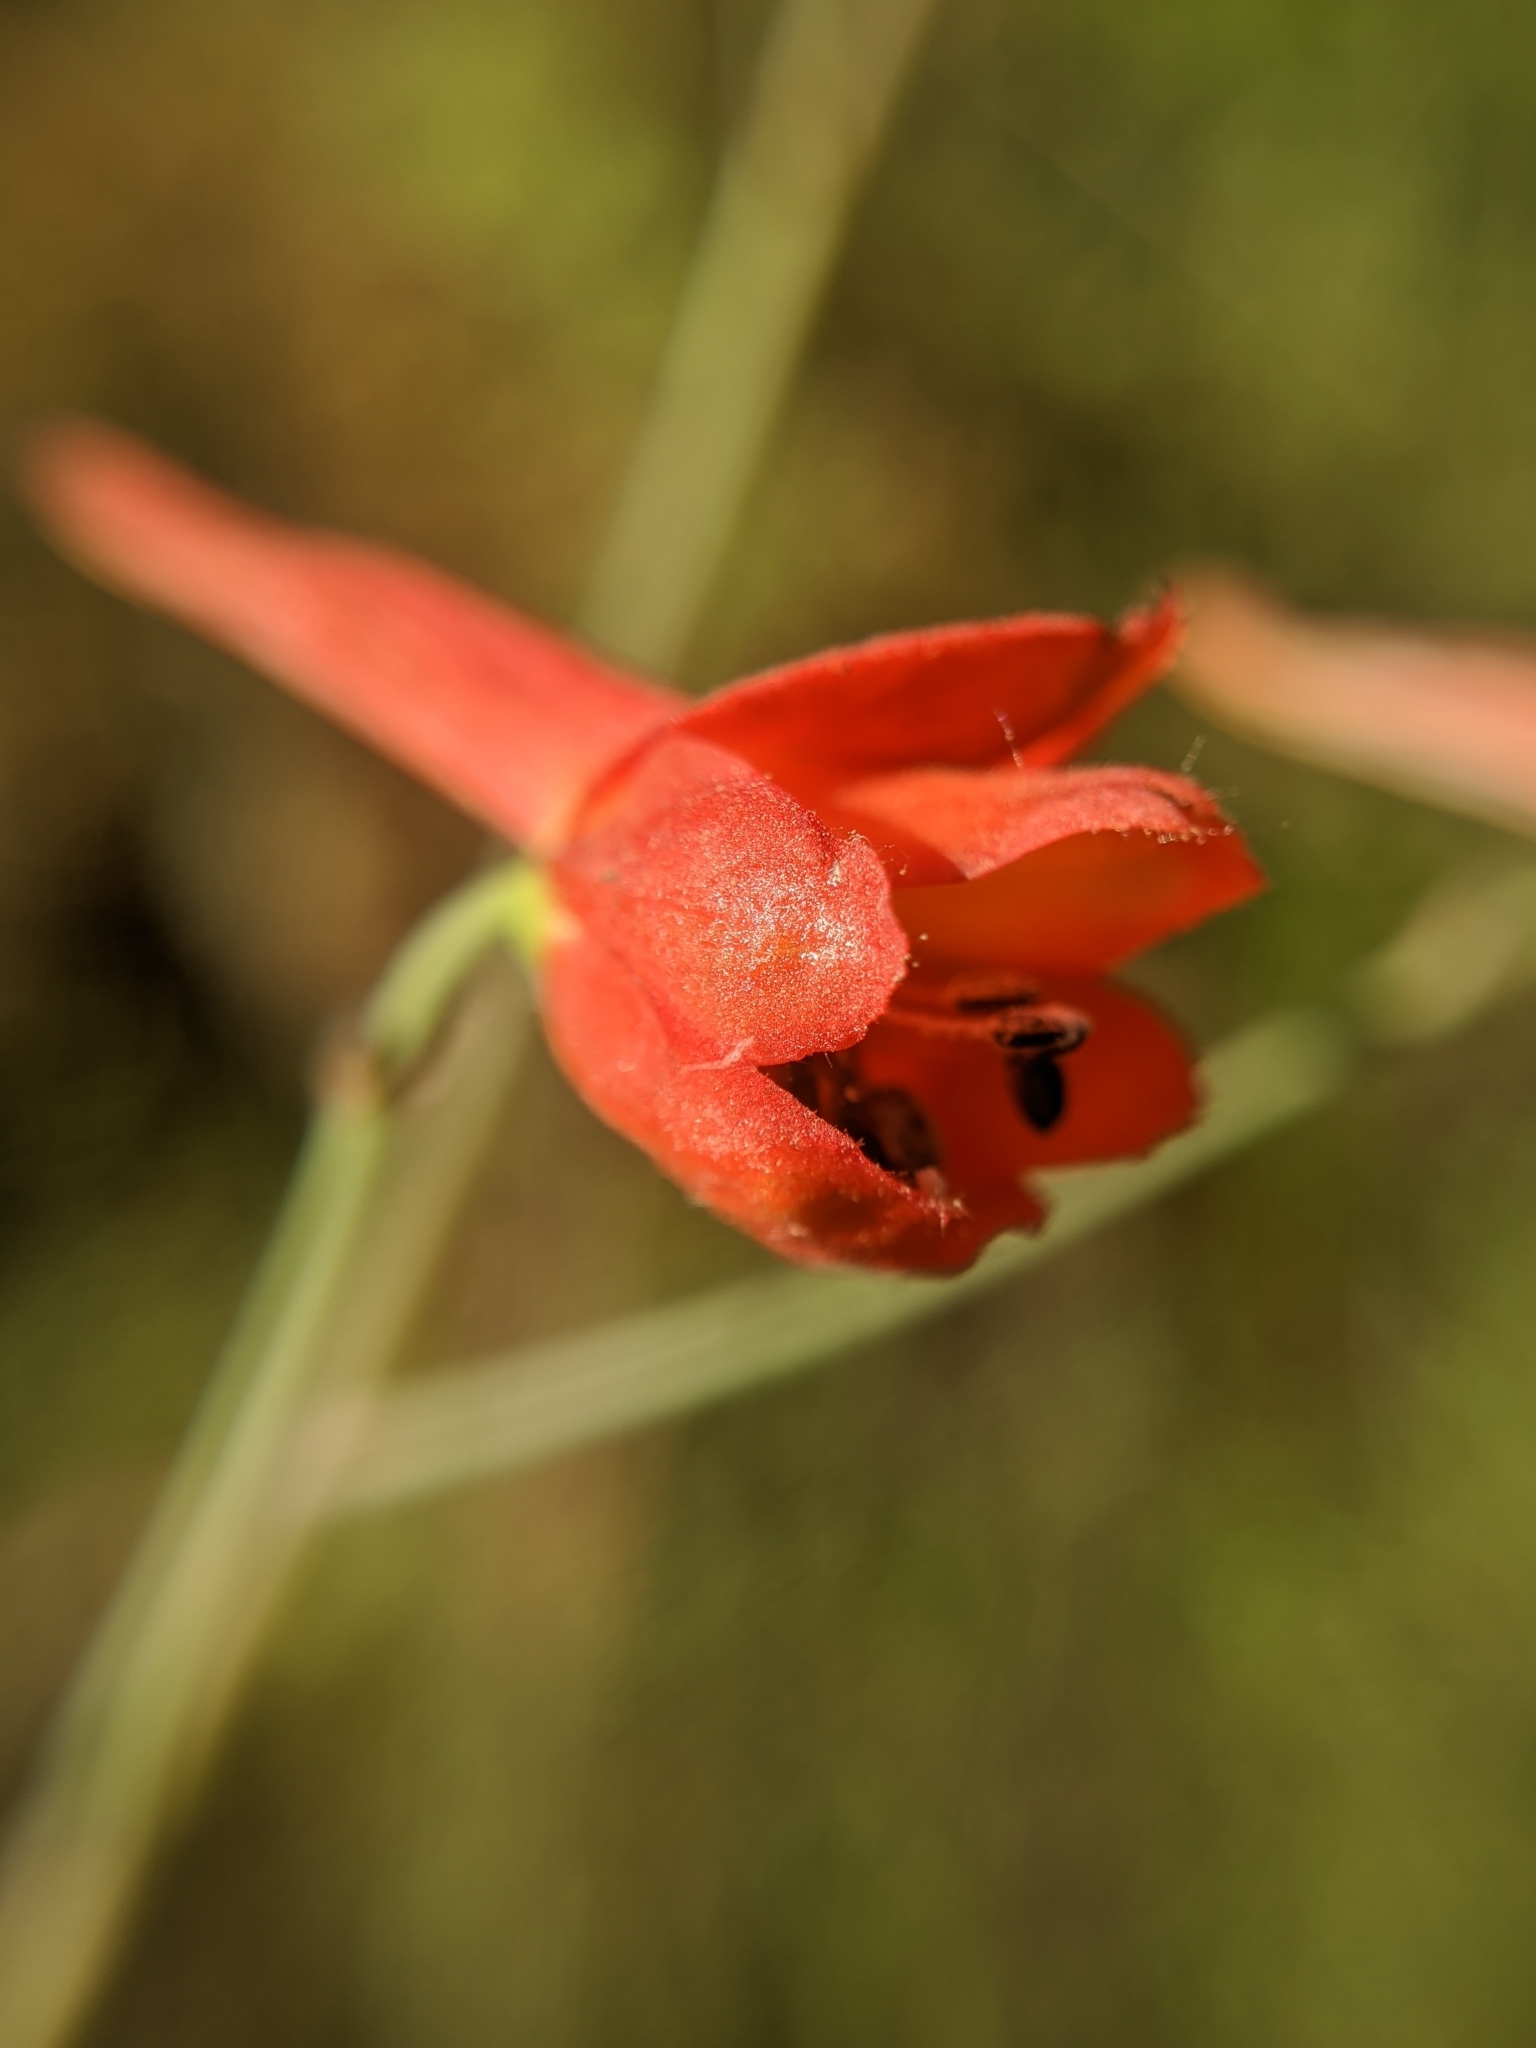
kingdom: Plantae
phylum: Tracheophyta
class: Magnoliopsida
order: Ranunculales
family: Ranunculaceae
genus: Delphinium
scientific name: Delphinium nudicaule
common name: Red larkspur
